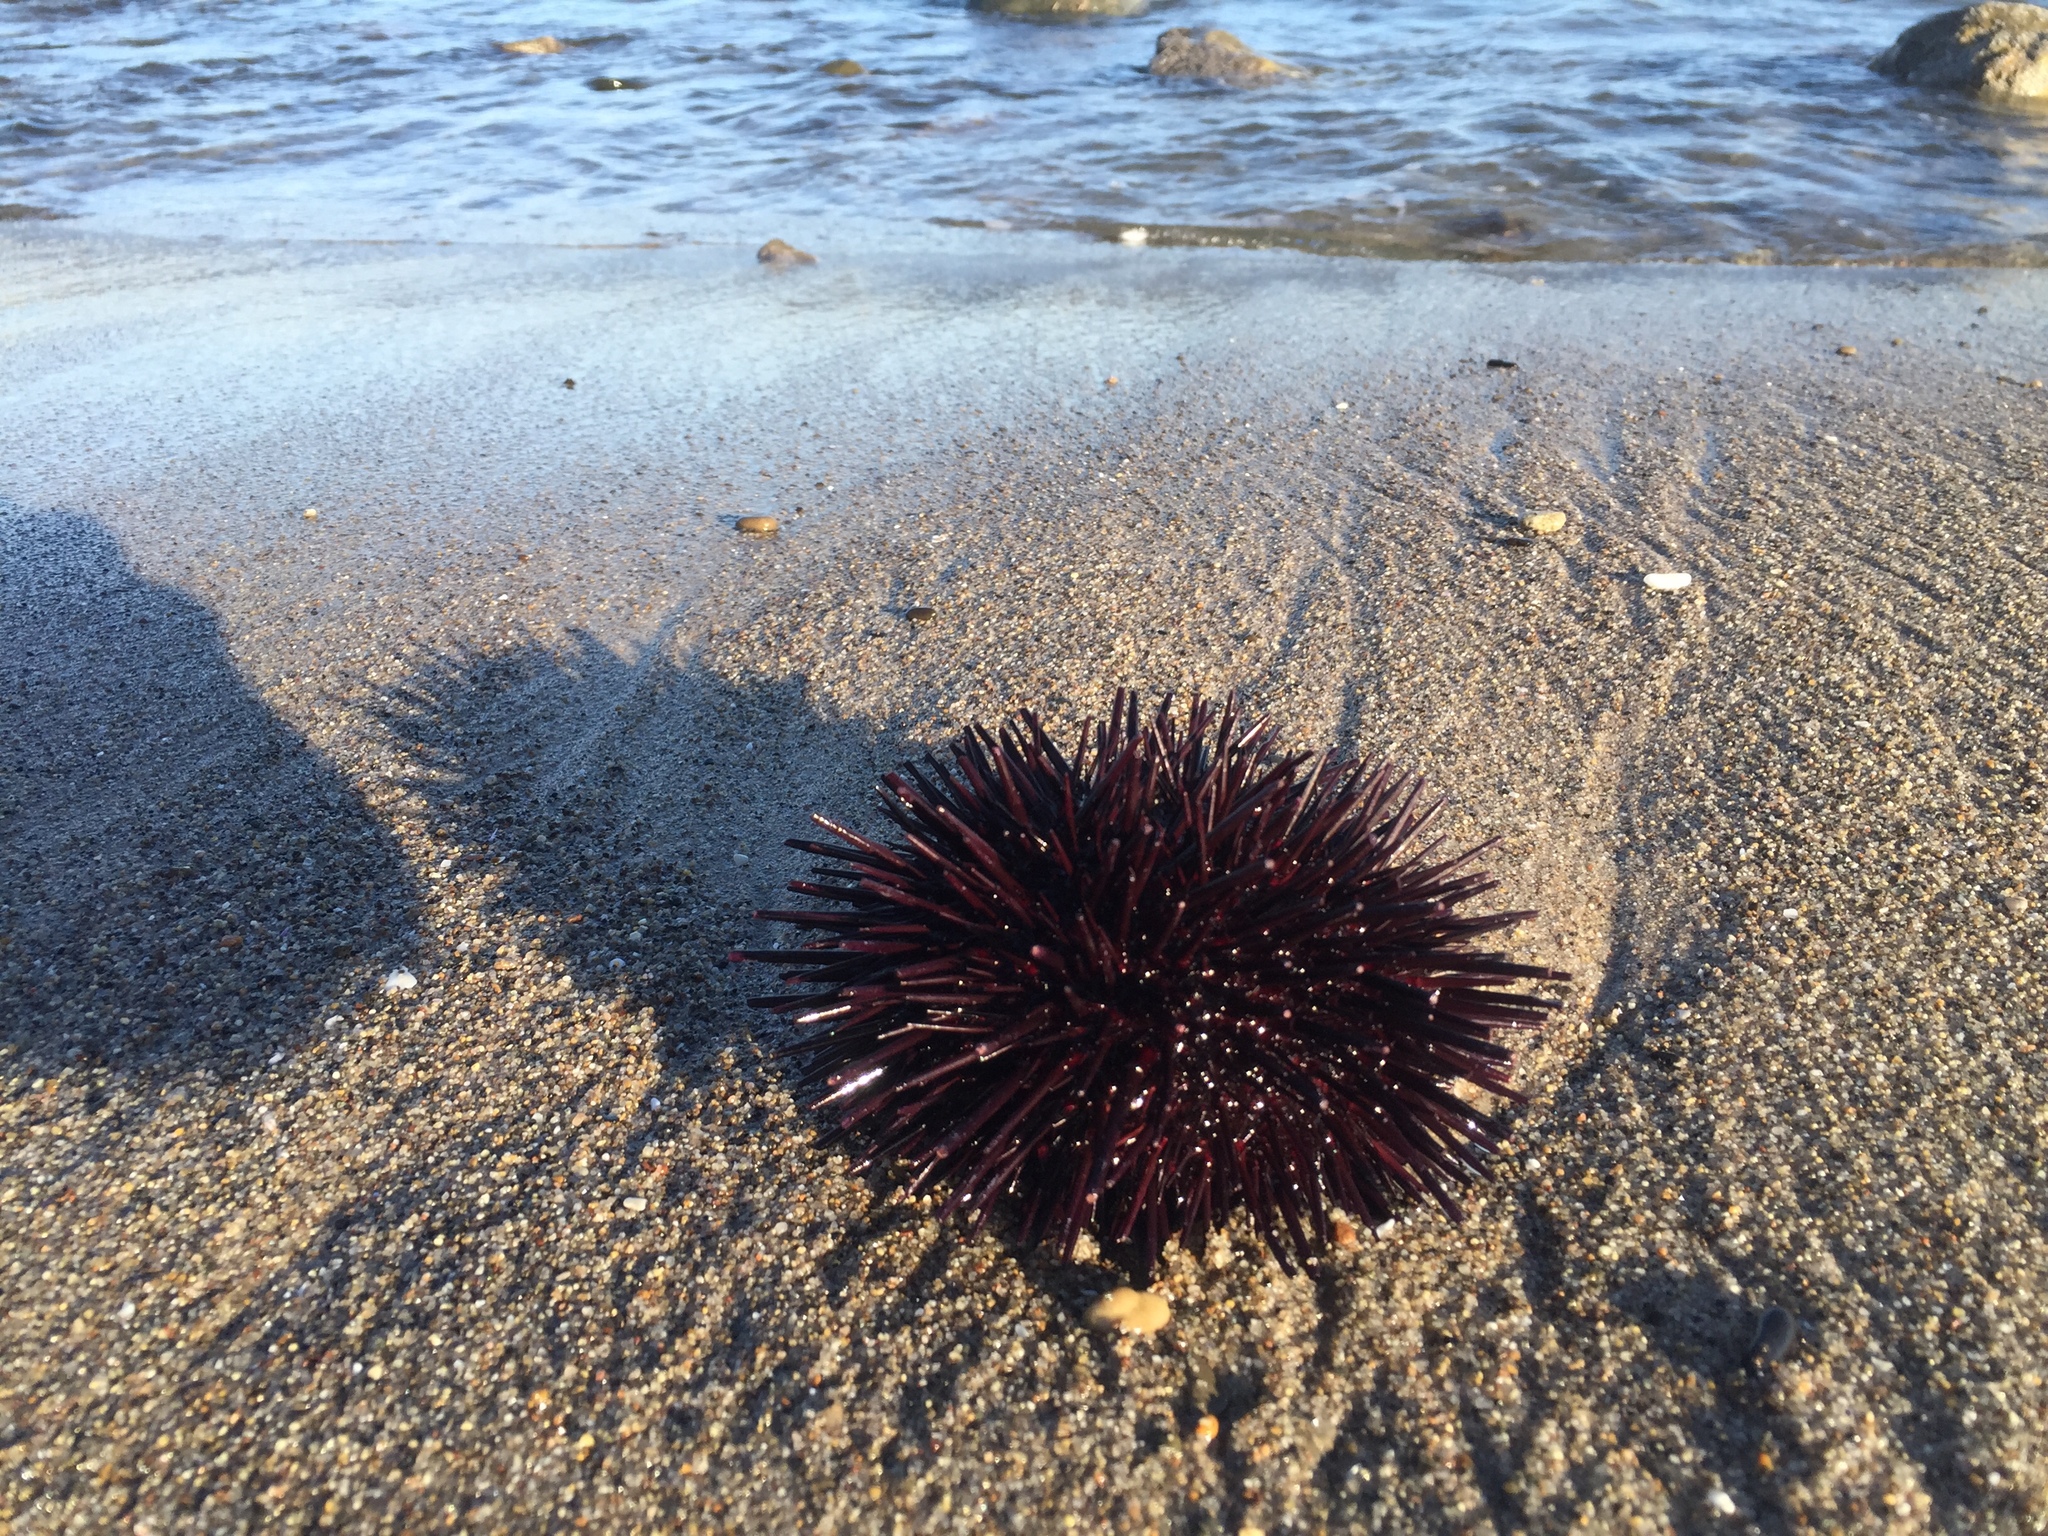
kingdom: Animalia
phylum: Echinodermata
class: Echinoidea
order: Camarodonta
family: Strongylocentrotidae
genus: Mesocentrotus
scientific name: Mesocentrotus franciscanus
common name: Red sea urchin
